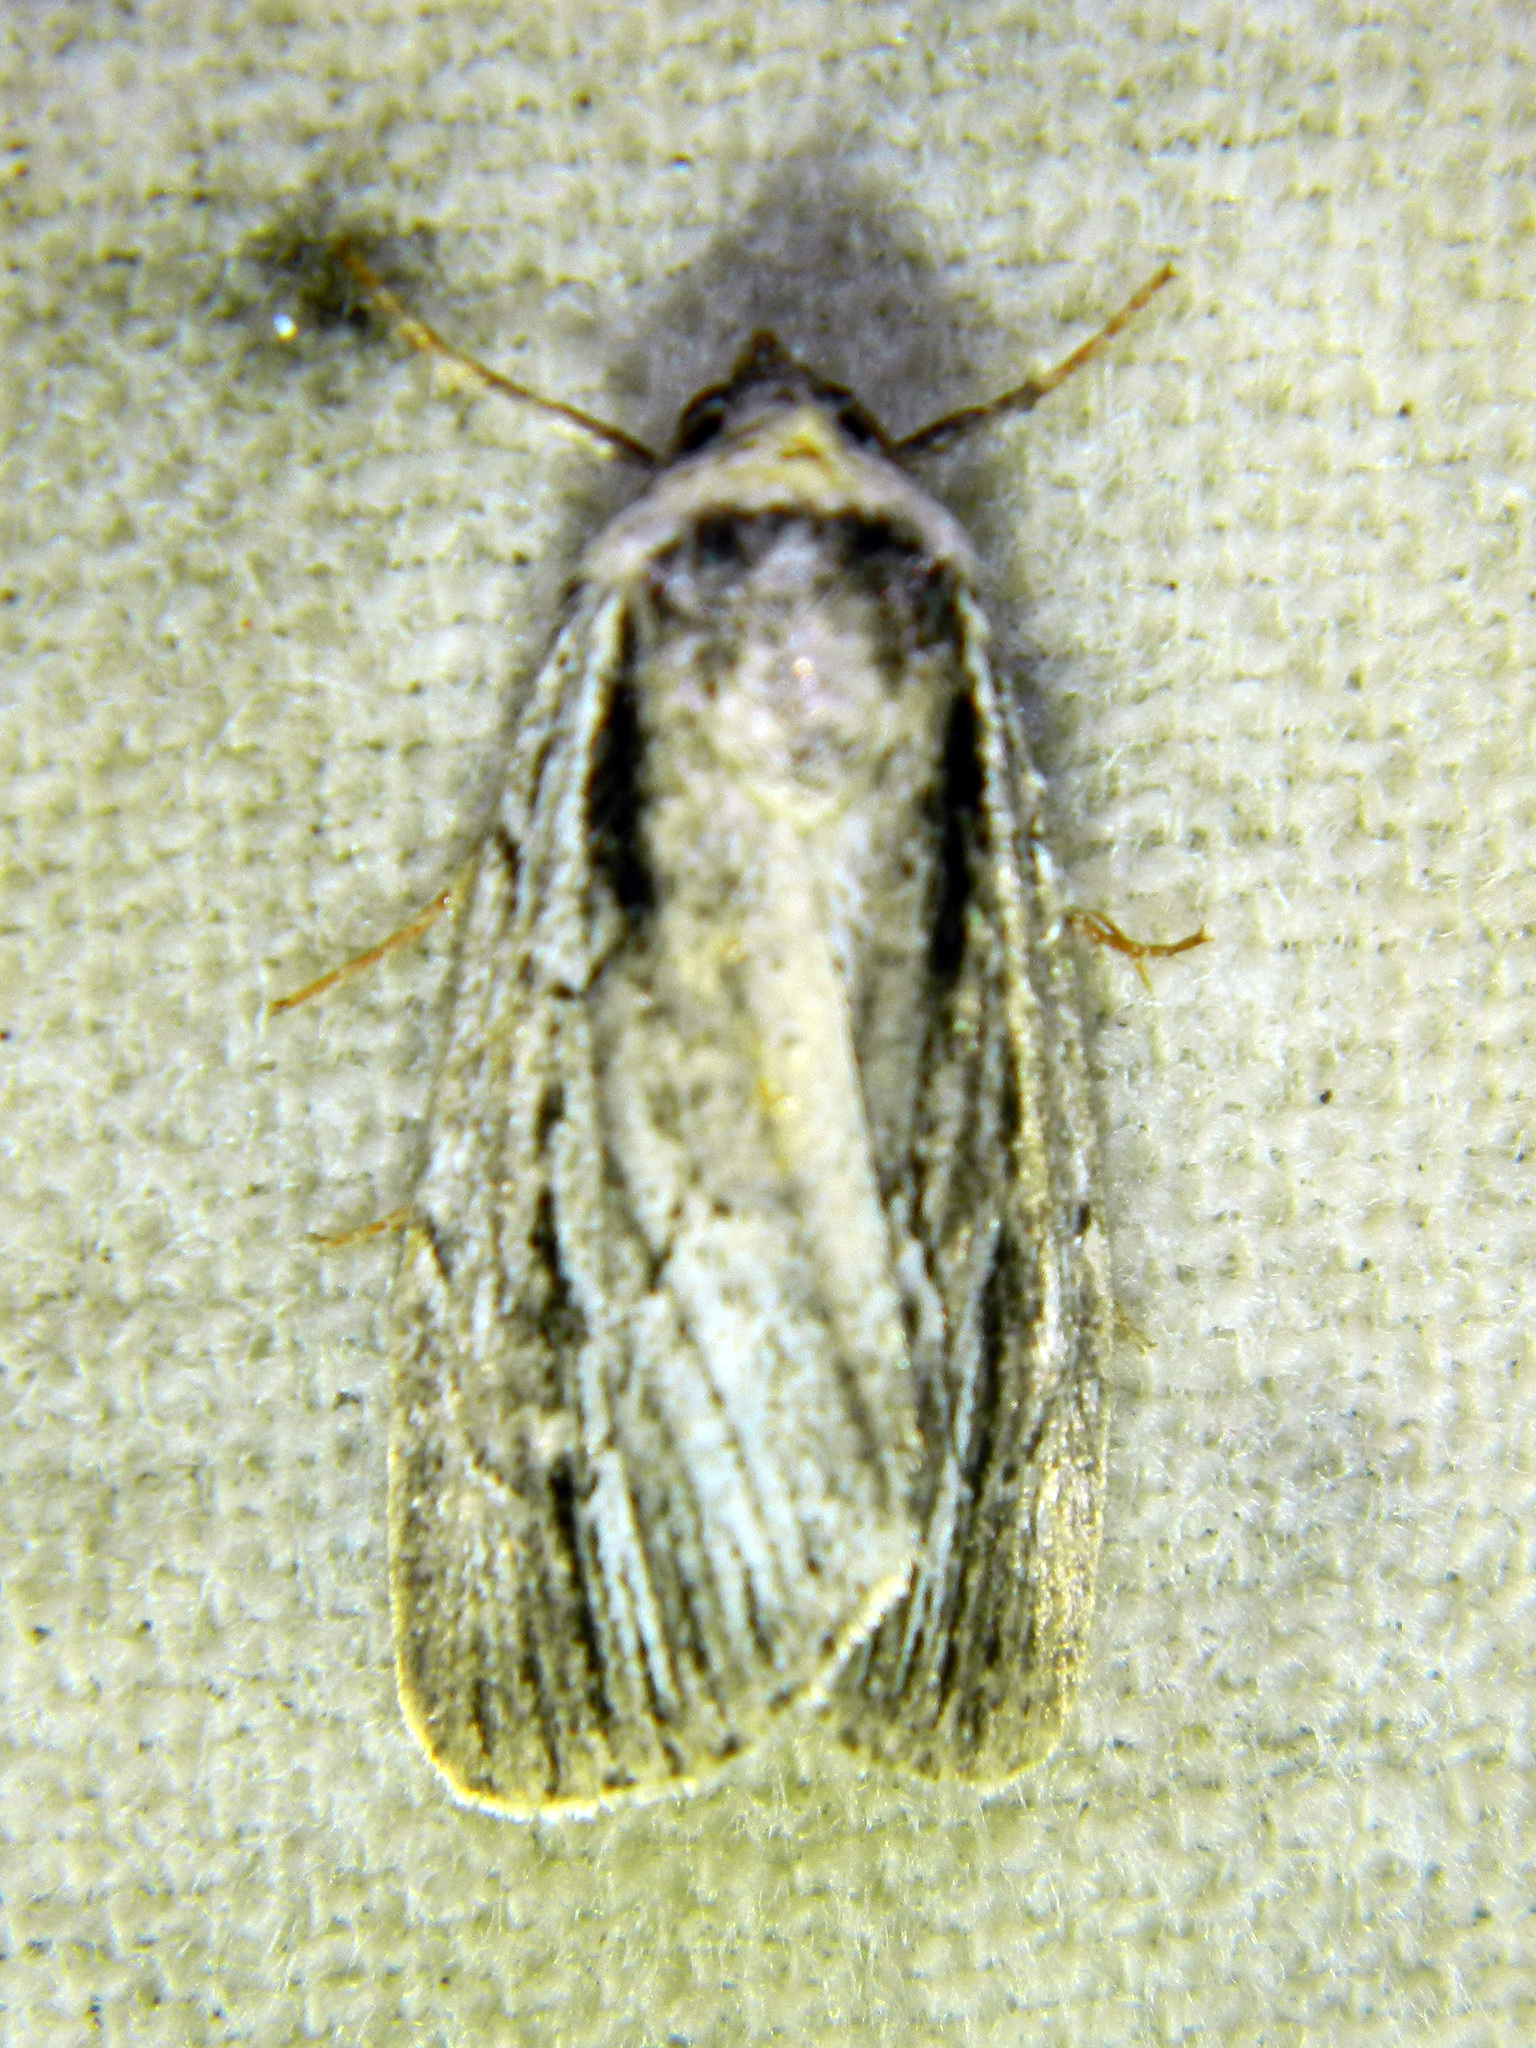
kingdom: Animalia
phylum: Arthropoda
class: Insecta
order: Lepidoptera
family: Noctuidae
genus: Sympistis
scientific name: Sympistis badistriga
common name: Brown-lined sallow moth
